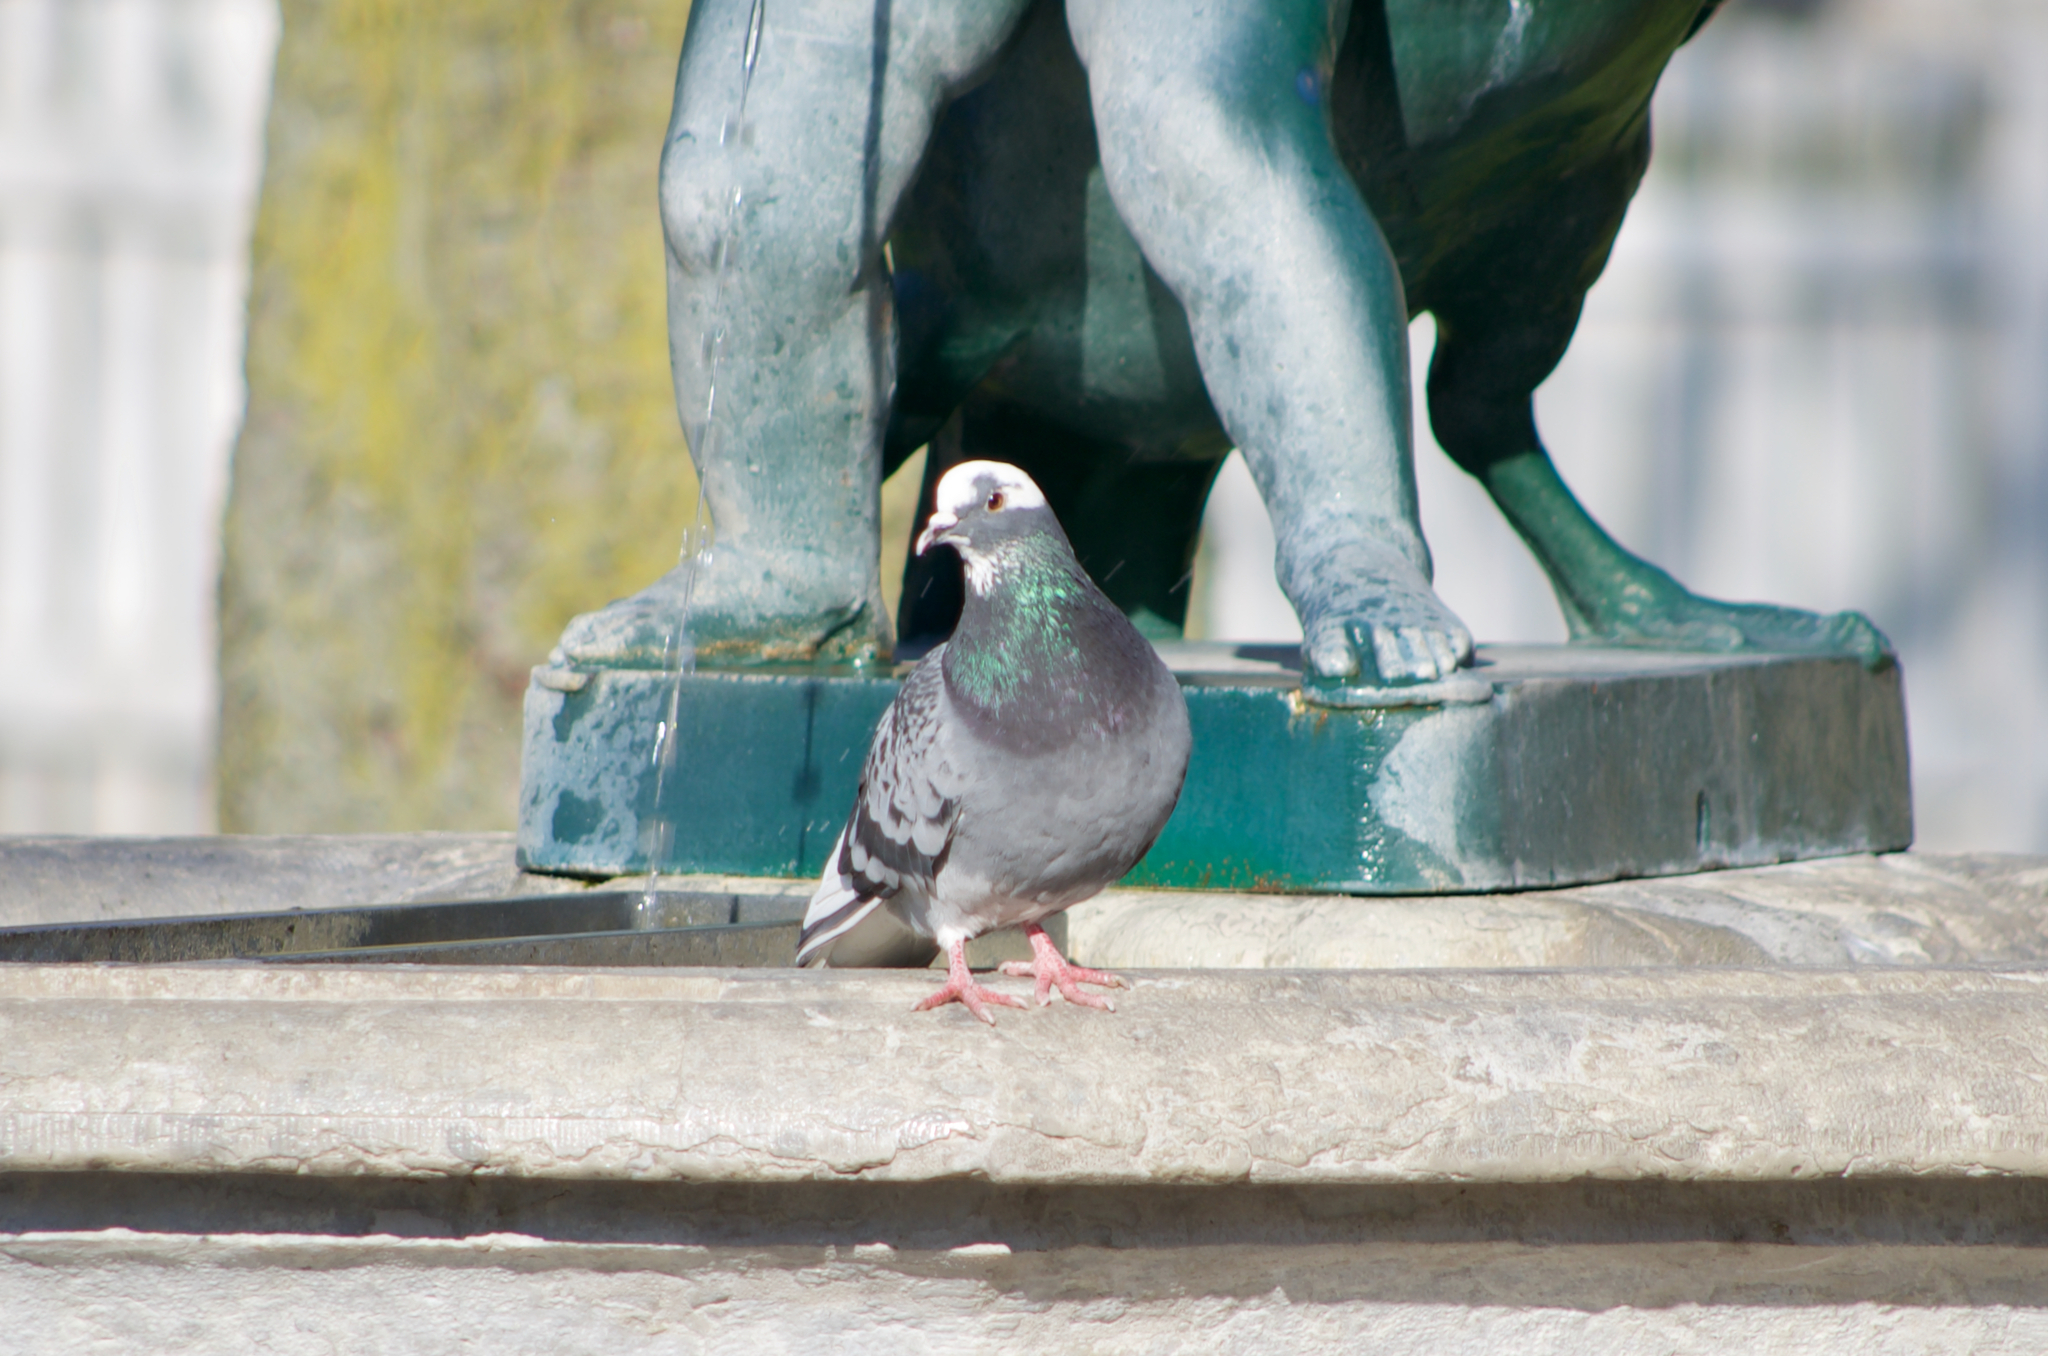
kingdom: Animalia
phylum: Chordata
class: Aves
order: Columbiformes
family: Columbidae
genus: Columba
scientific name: Columba livia
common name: Rock pigeon
